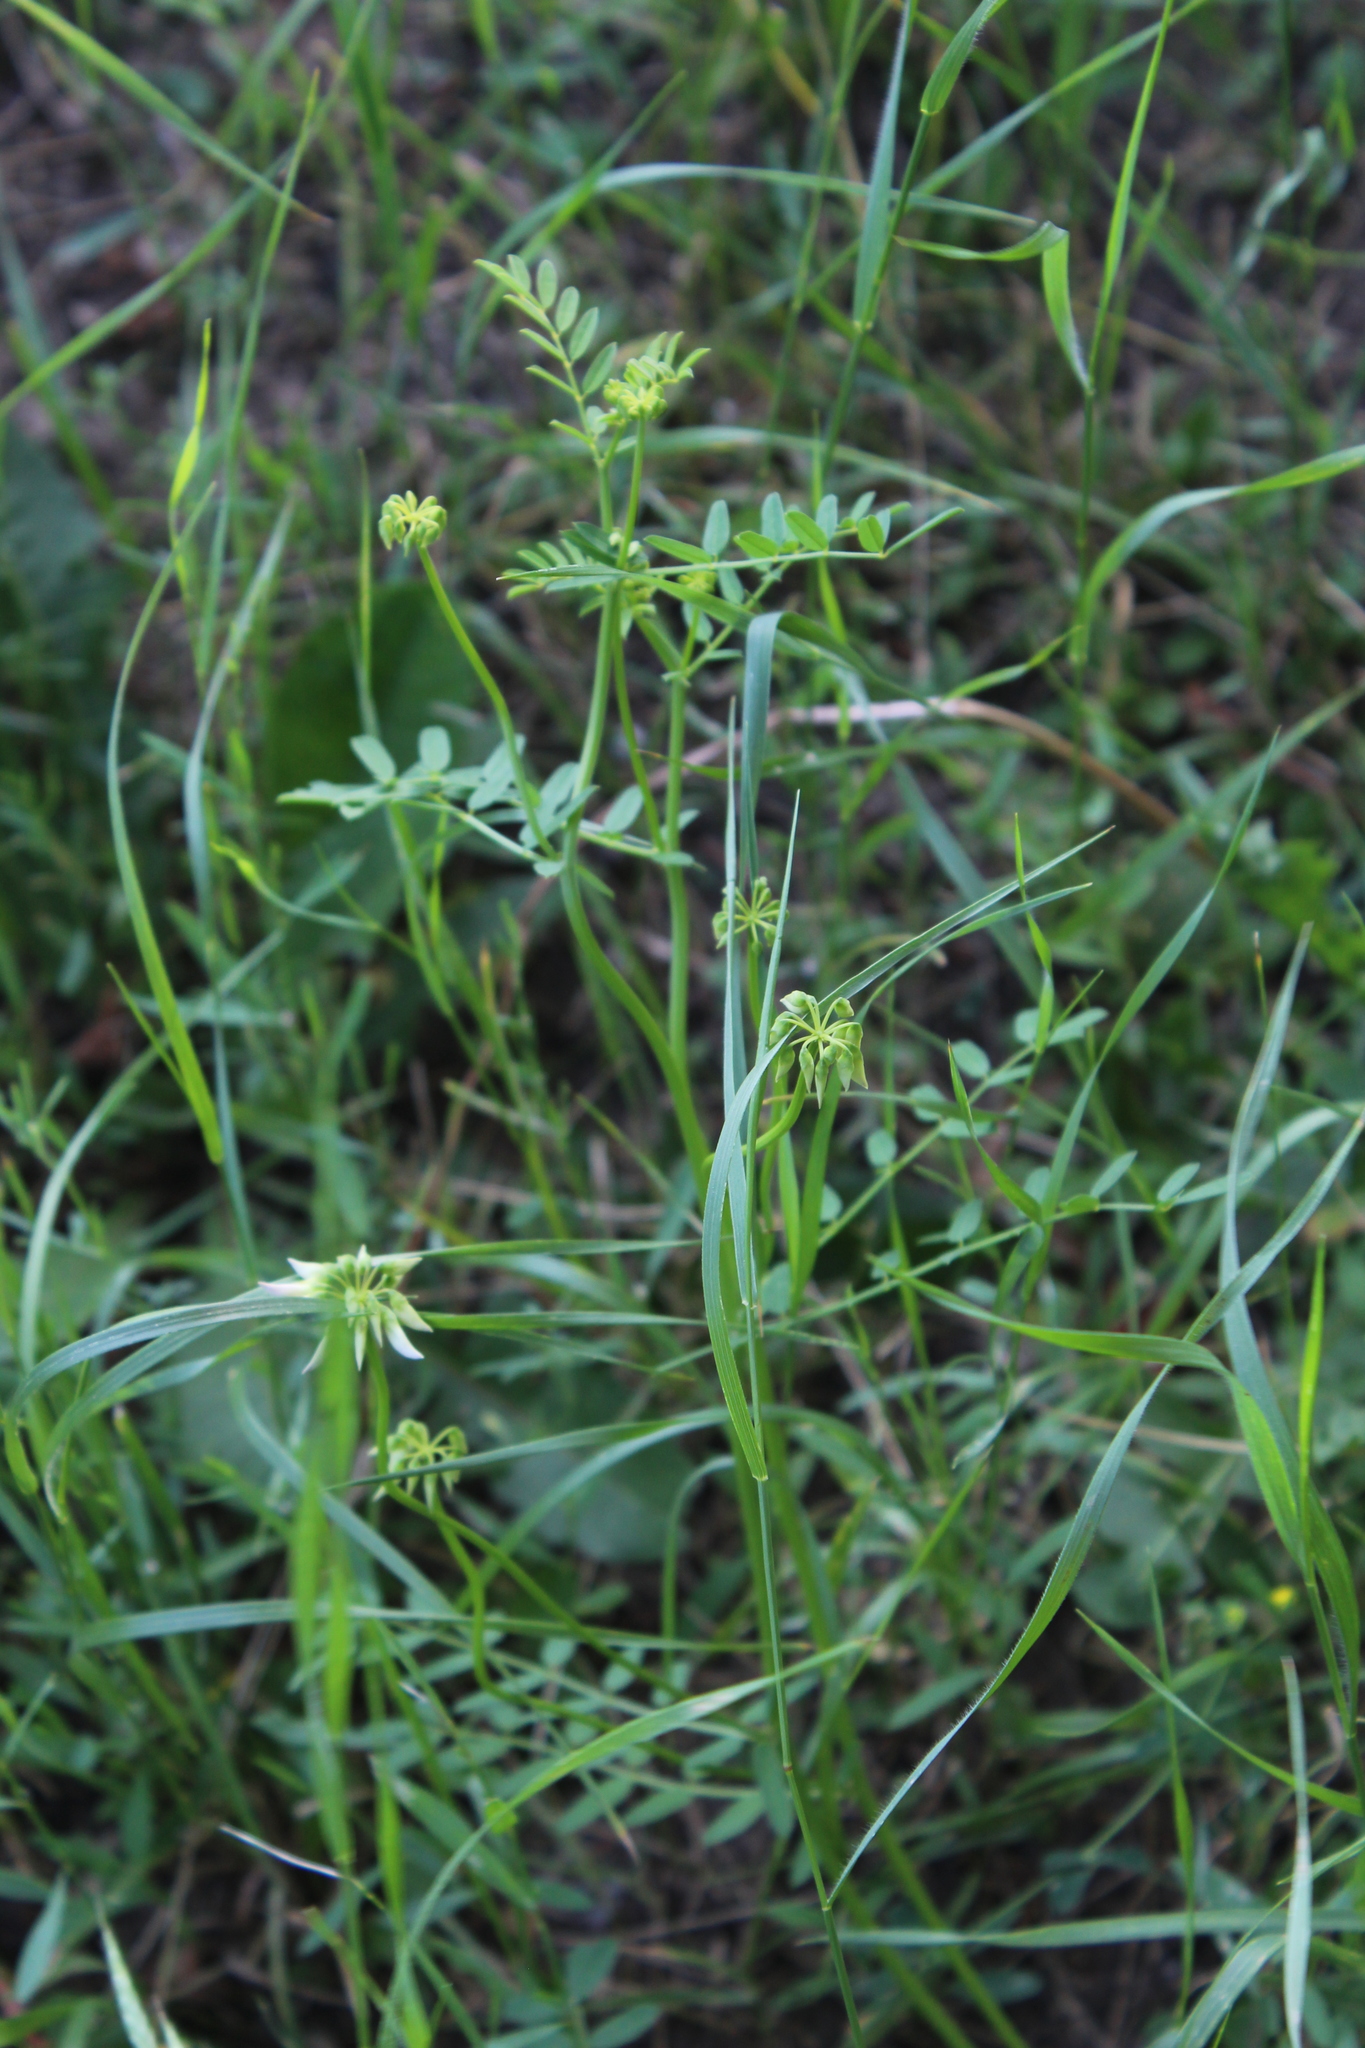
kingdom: Plantae
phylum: Tracheophyta
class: Magnoliopsida
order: Fabales
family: Fabaceae
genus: Coronilla
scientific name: Coronilla varia
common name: Crownvetch
